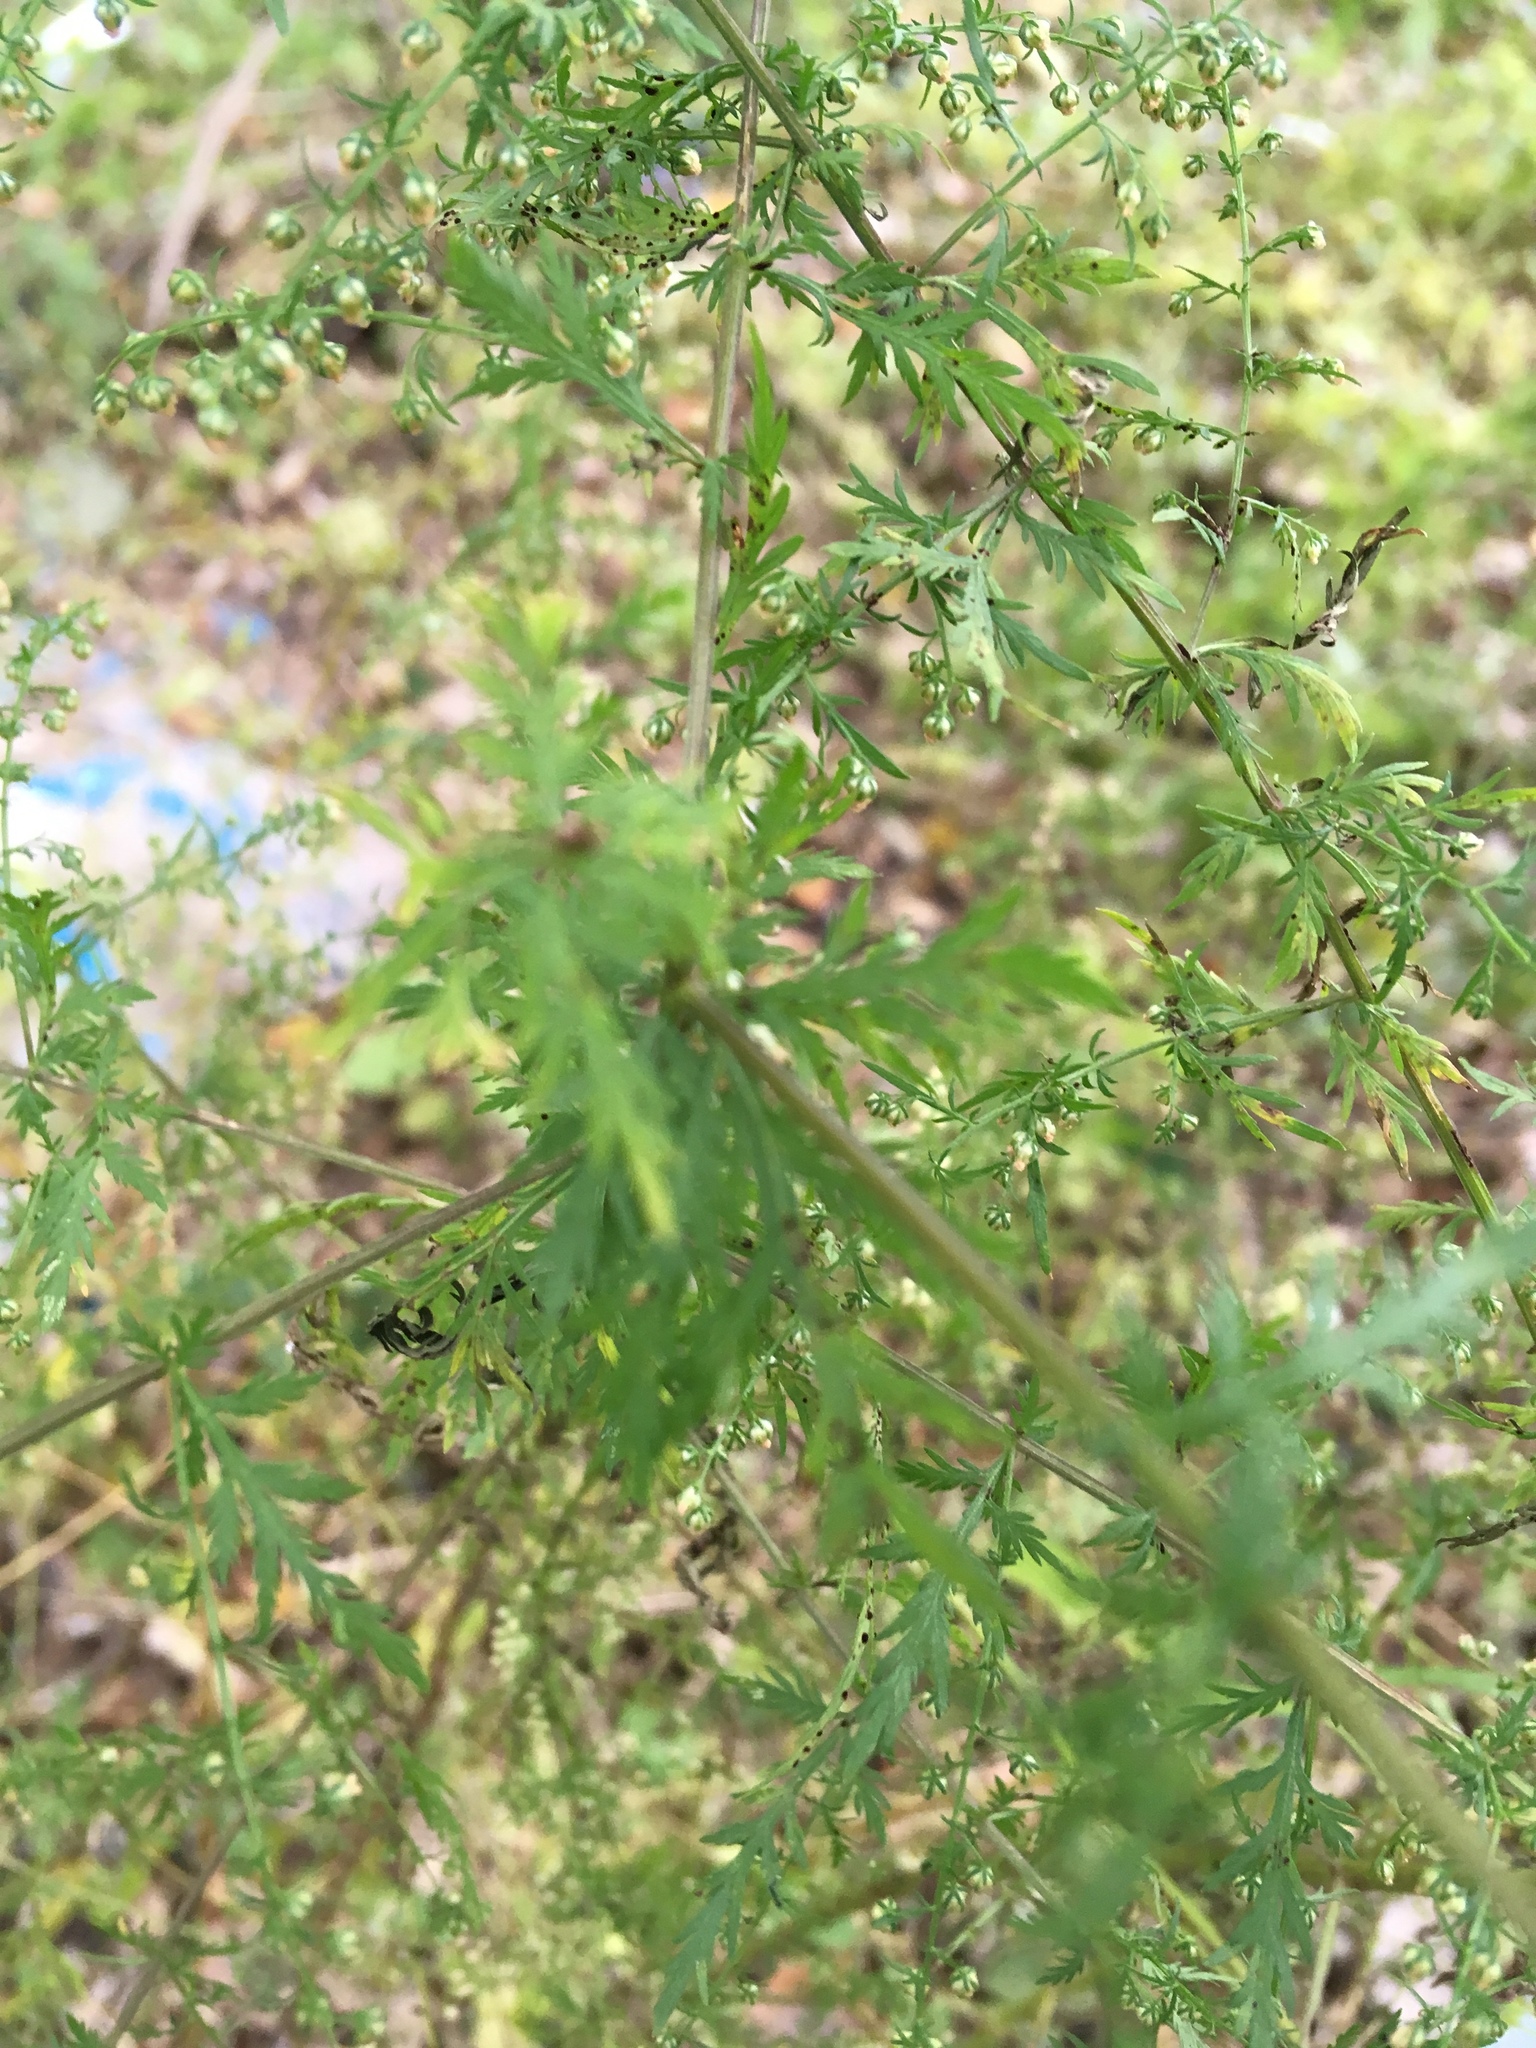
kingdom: Plantae
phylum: Tracheophyta
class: Magnoliopsida
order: Asterales
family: Asteraceae
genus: Artemisia
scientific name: Artemisia annua
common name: Sweet sagewort
